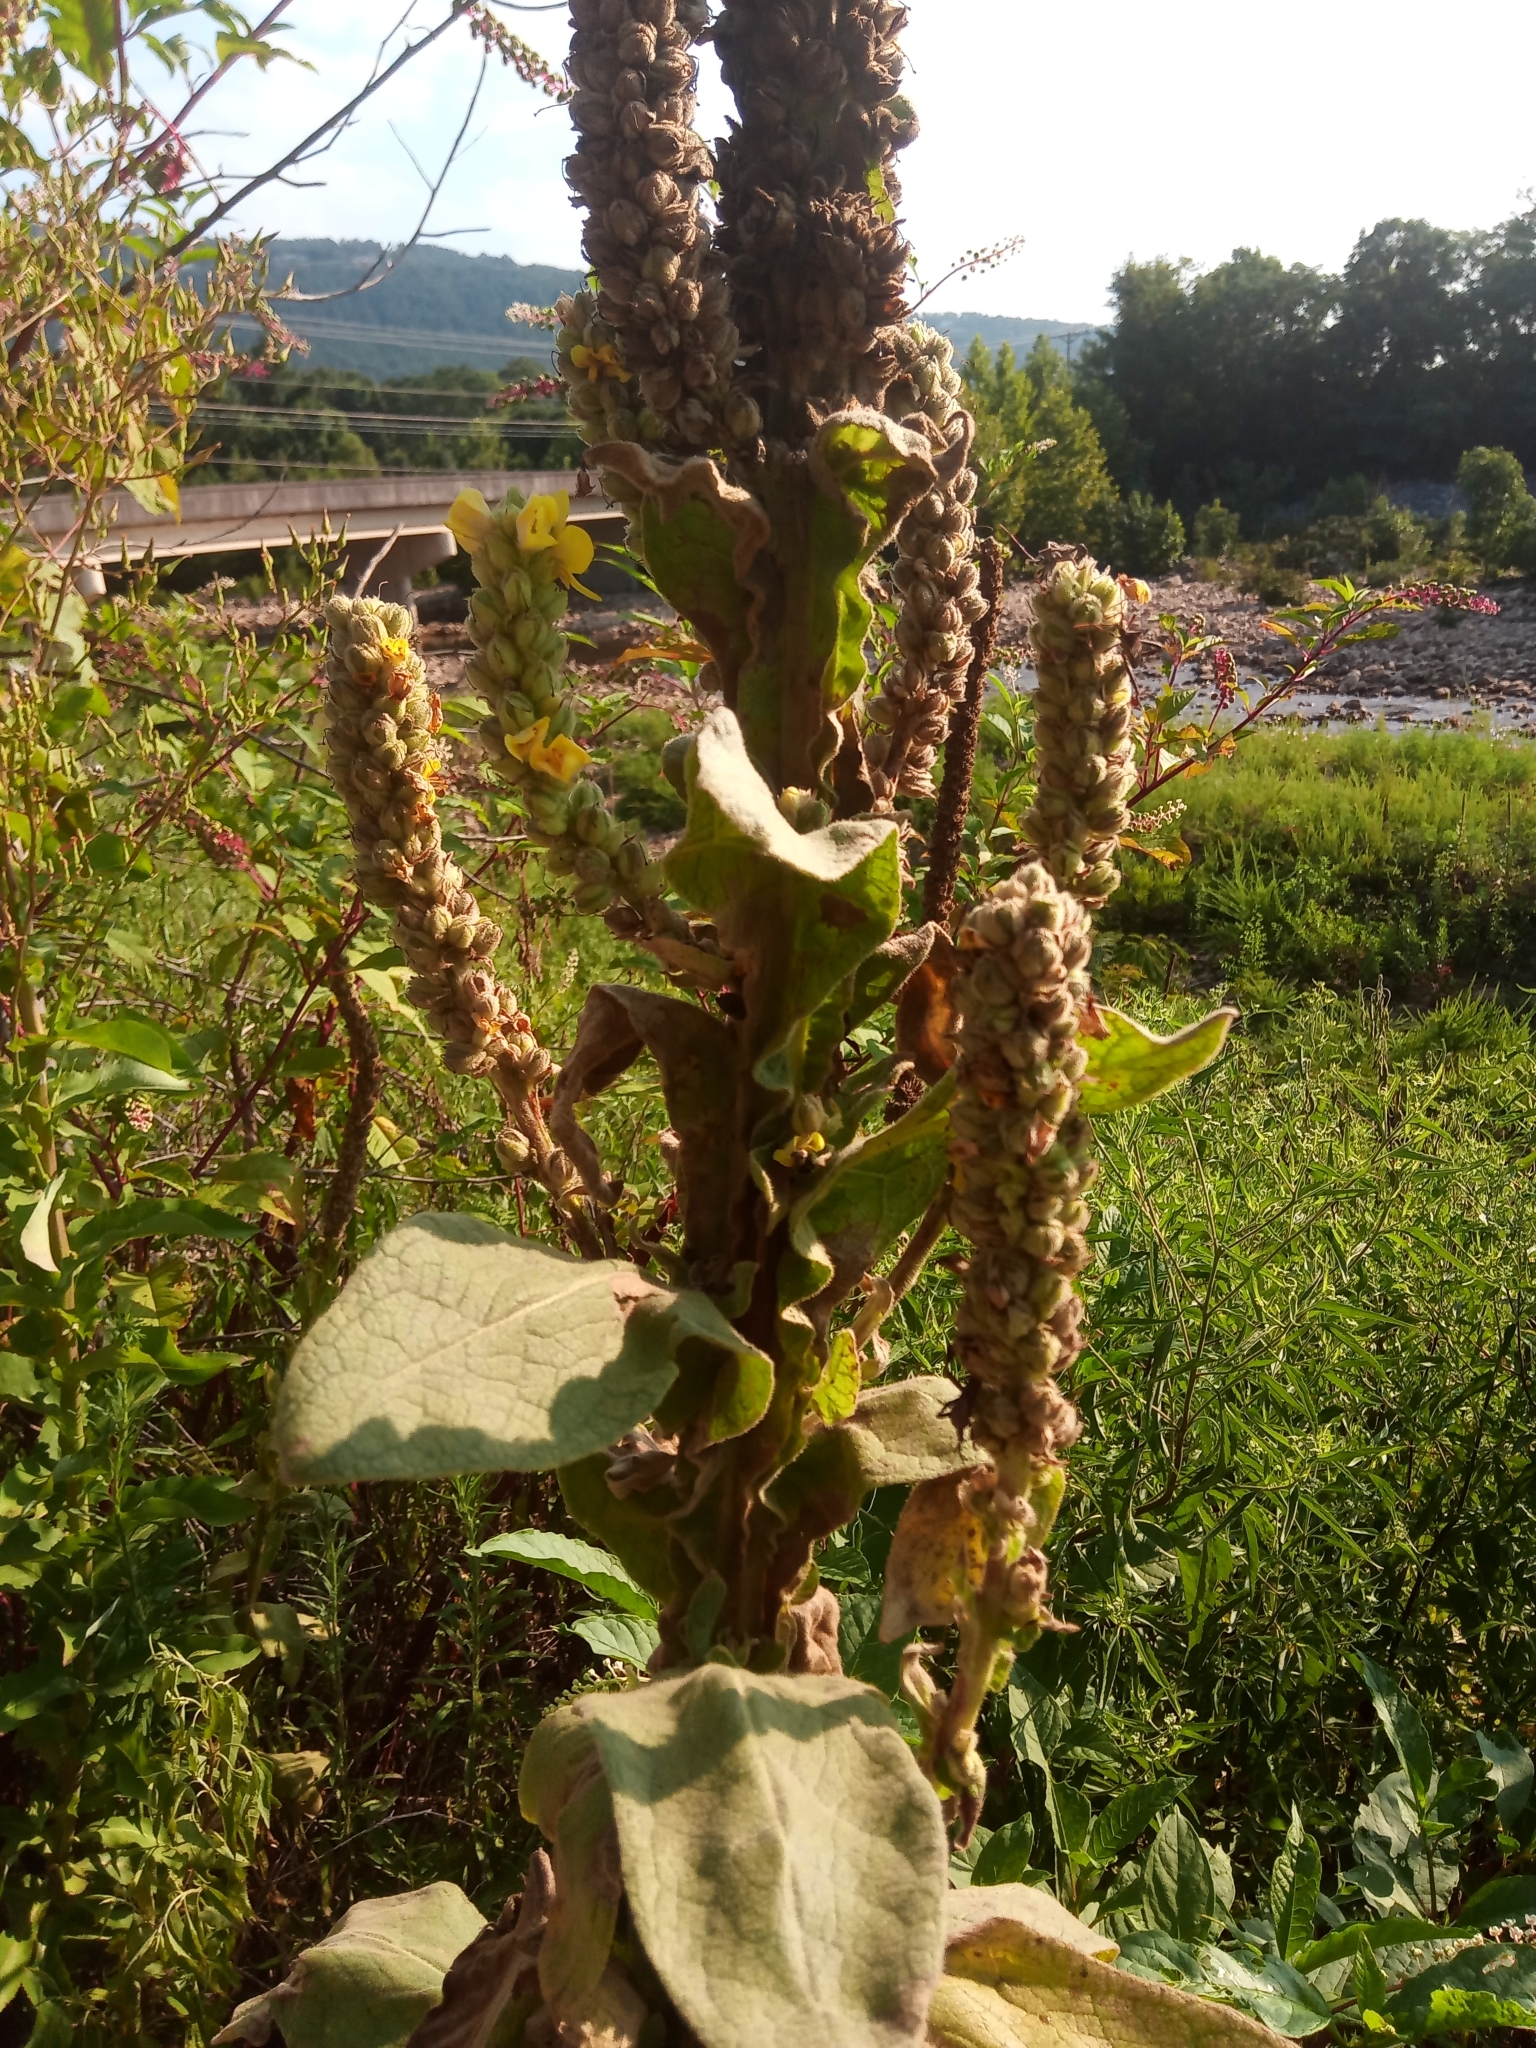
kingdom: Plantae
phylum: Tracheophyta
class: Magnoliopsida
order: Lamiales
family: Scrophulariaceae
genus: Verbascum
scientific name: Verbascum thapsus
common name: Common mullein
